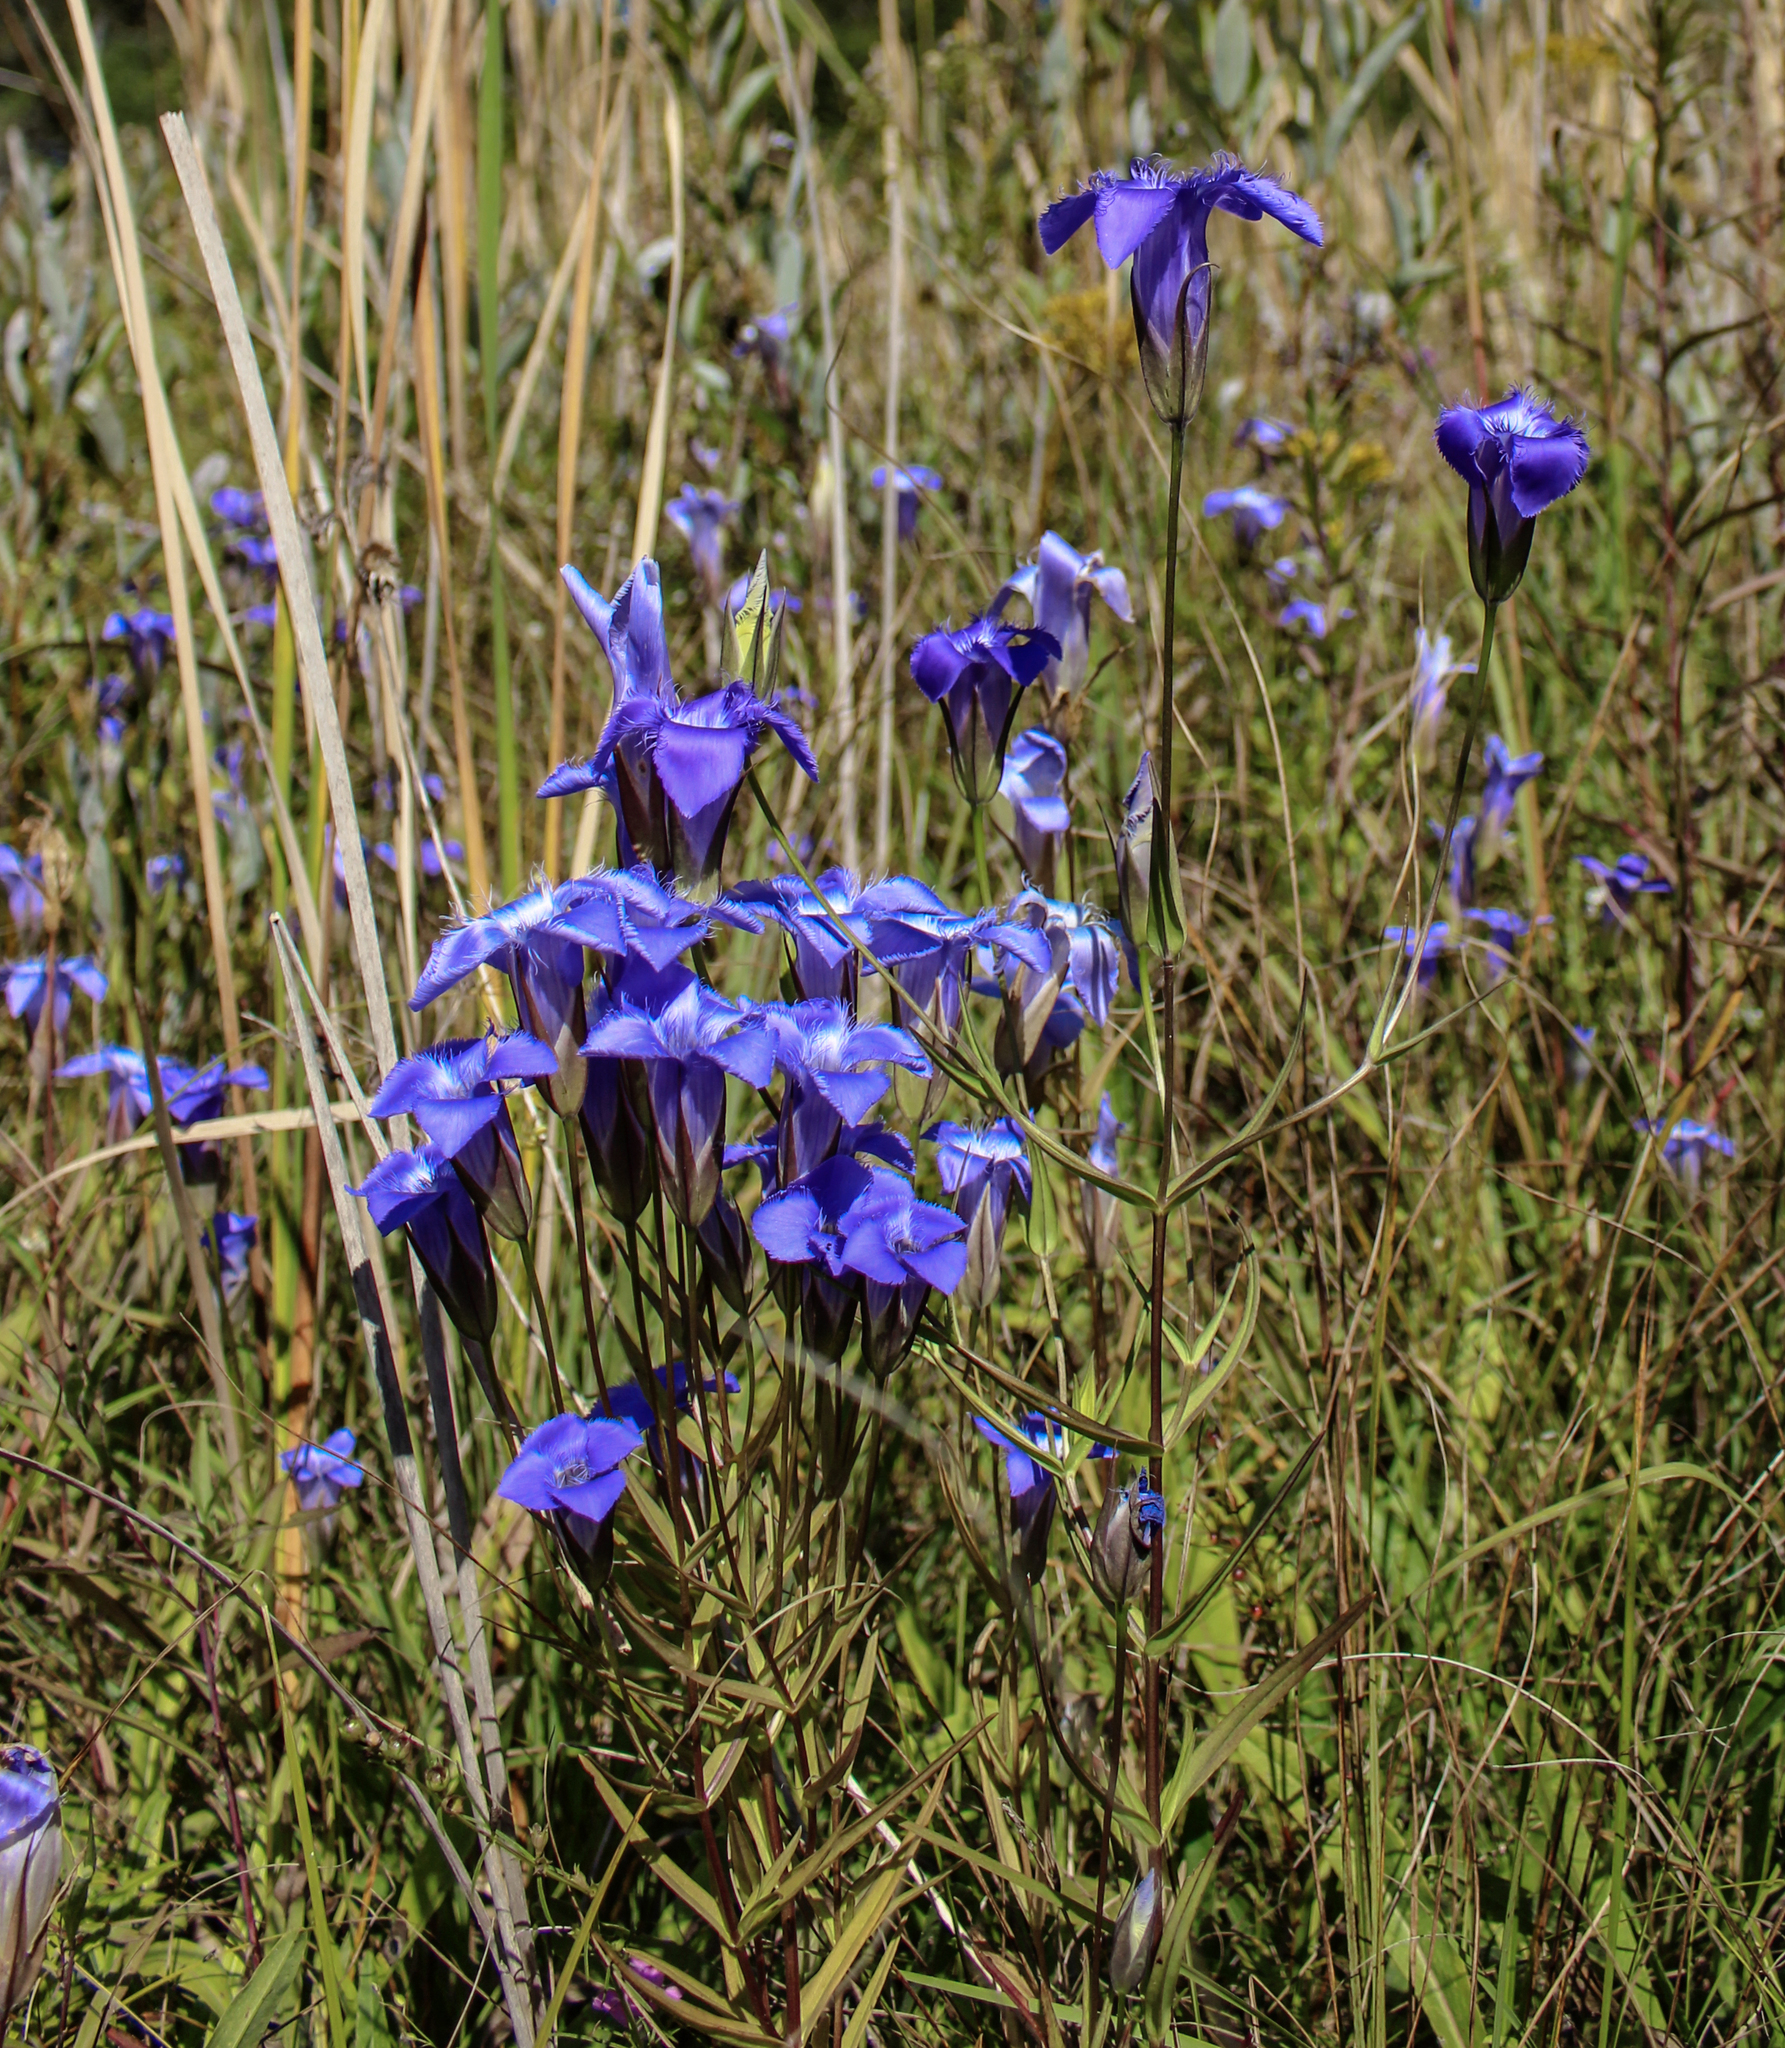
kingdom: Plantae
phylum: Tracheophyta
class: Magnoliopsida
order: Gentianales
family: Gentianaceae
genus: Gentianopsis
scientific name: Gentianopsis crinita
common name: Fringed-gentian
